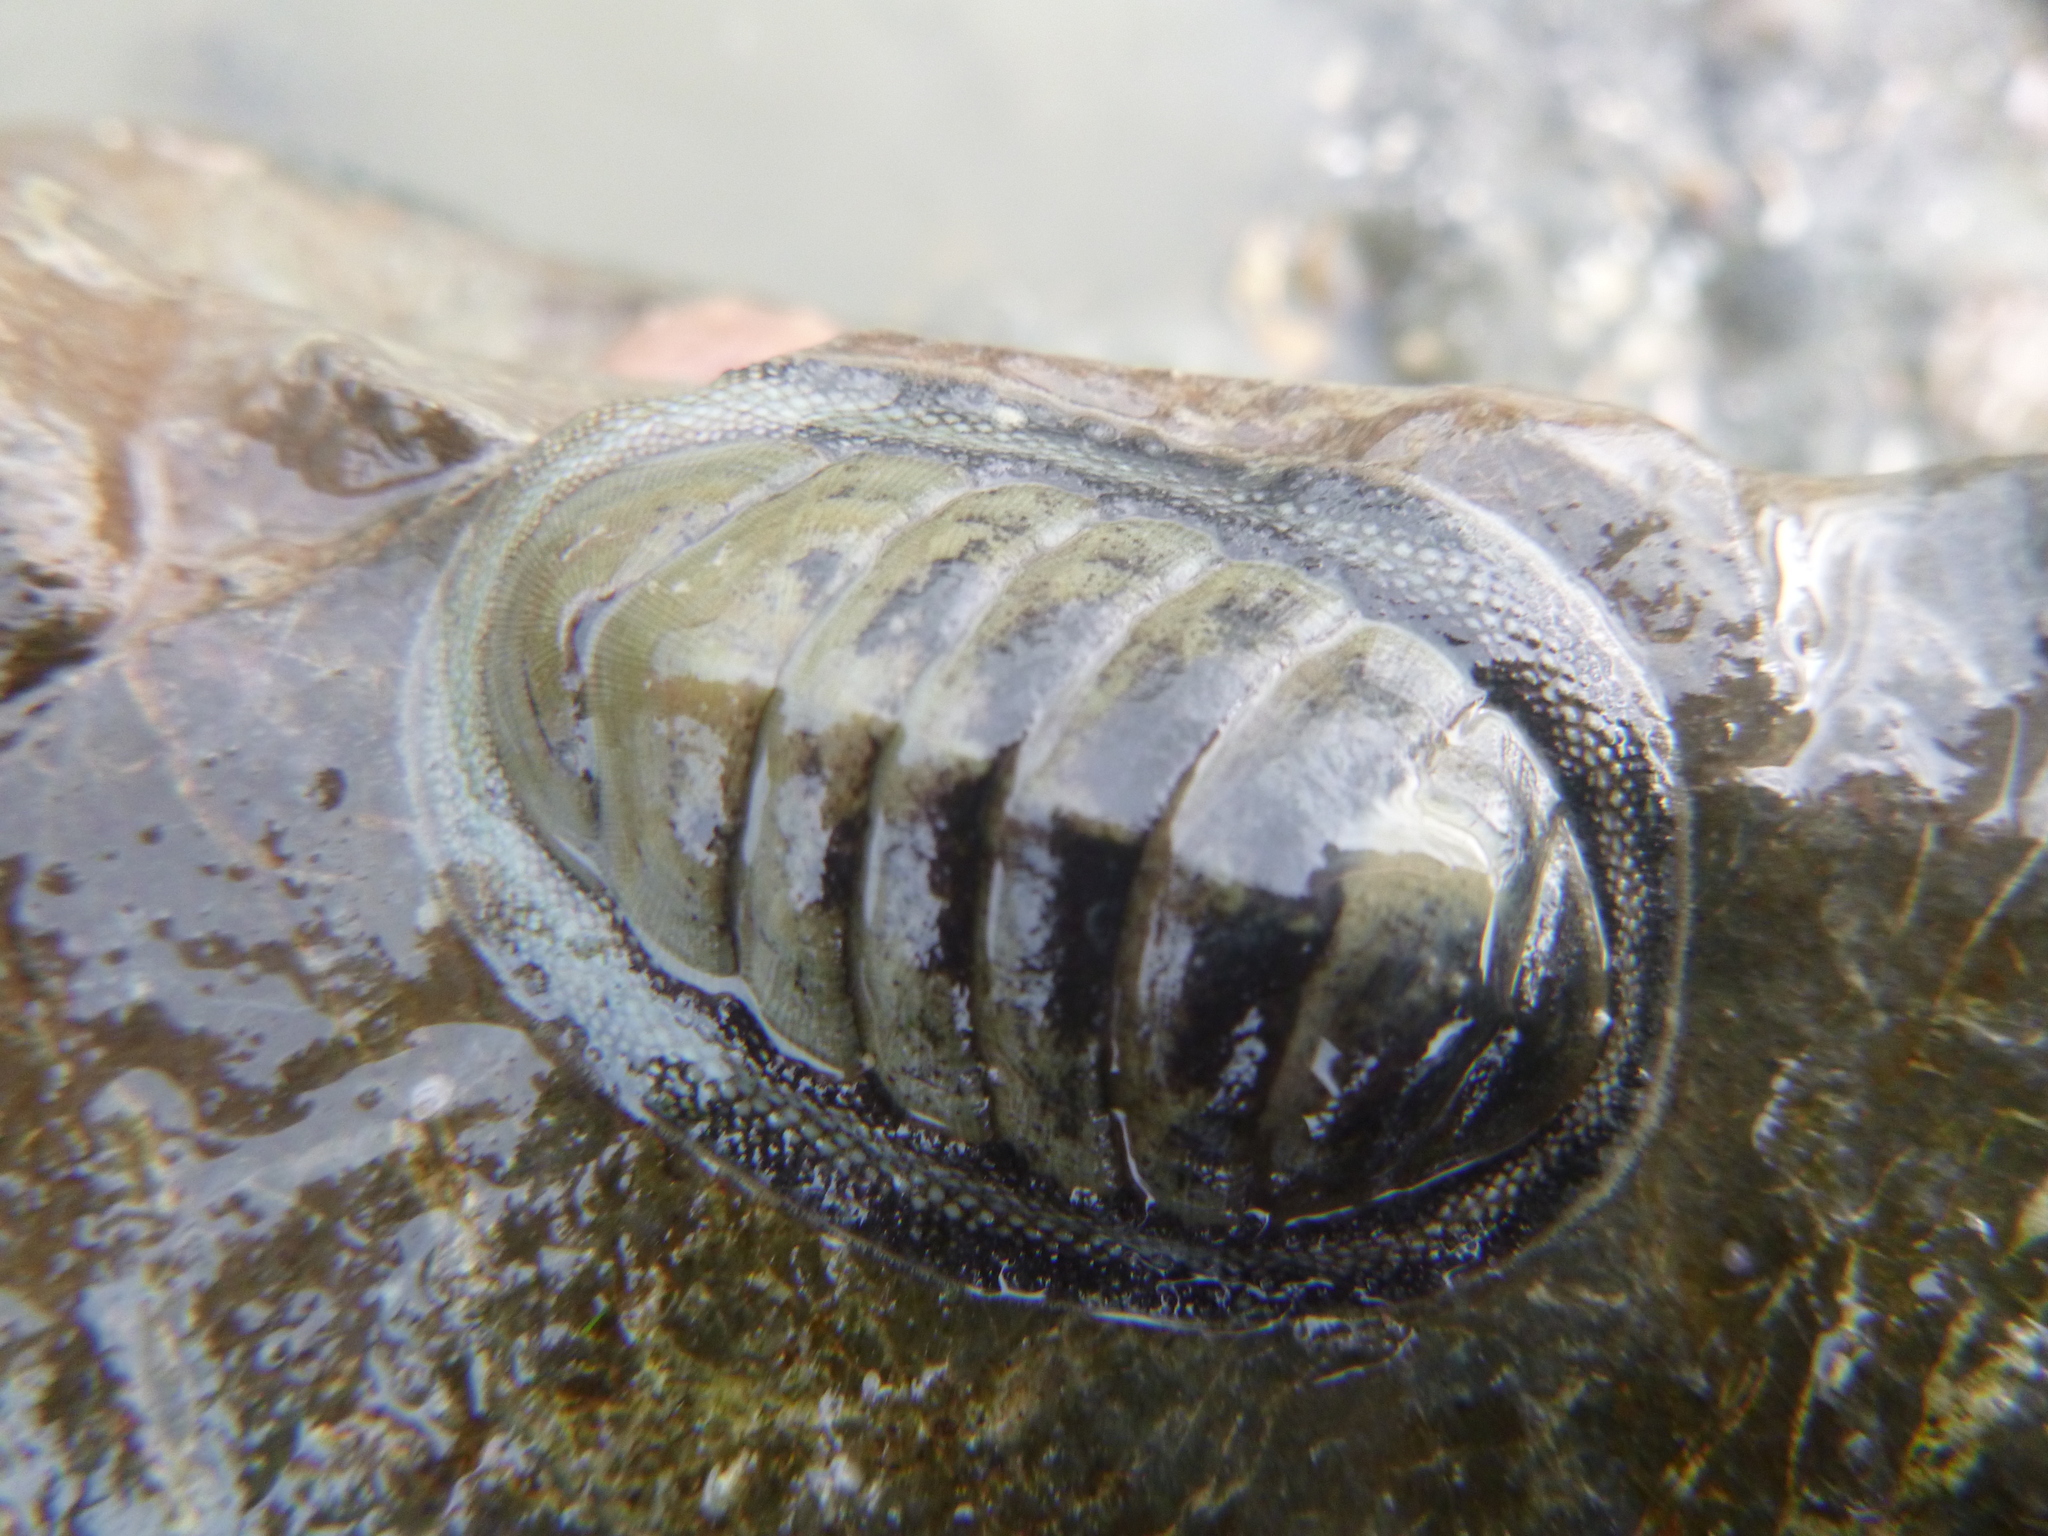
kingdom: Animalia
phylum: Mollusca
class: Polyplacophora
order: Chitonida
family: Chitonidae
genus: Chiton
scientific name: Chiton glaucus
